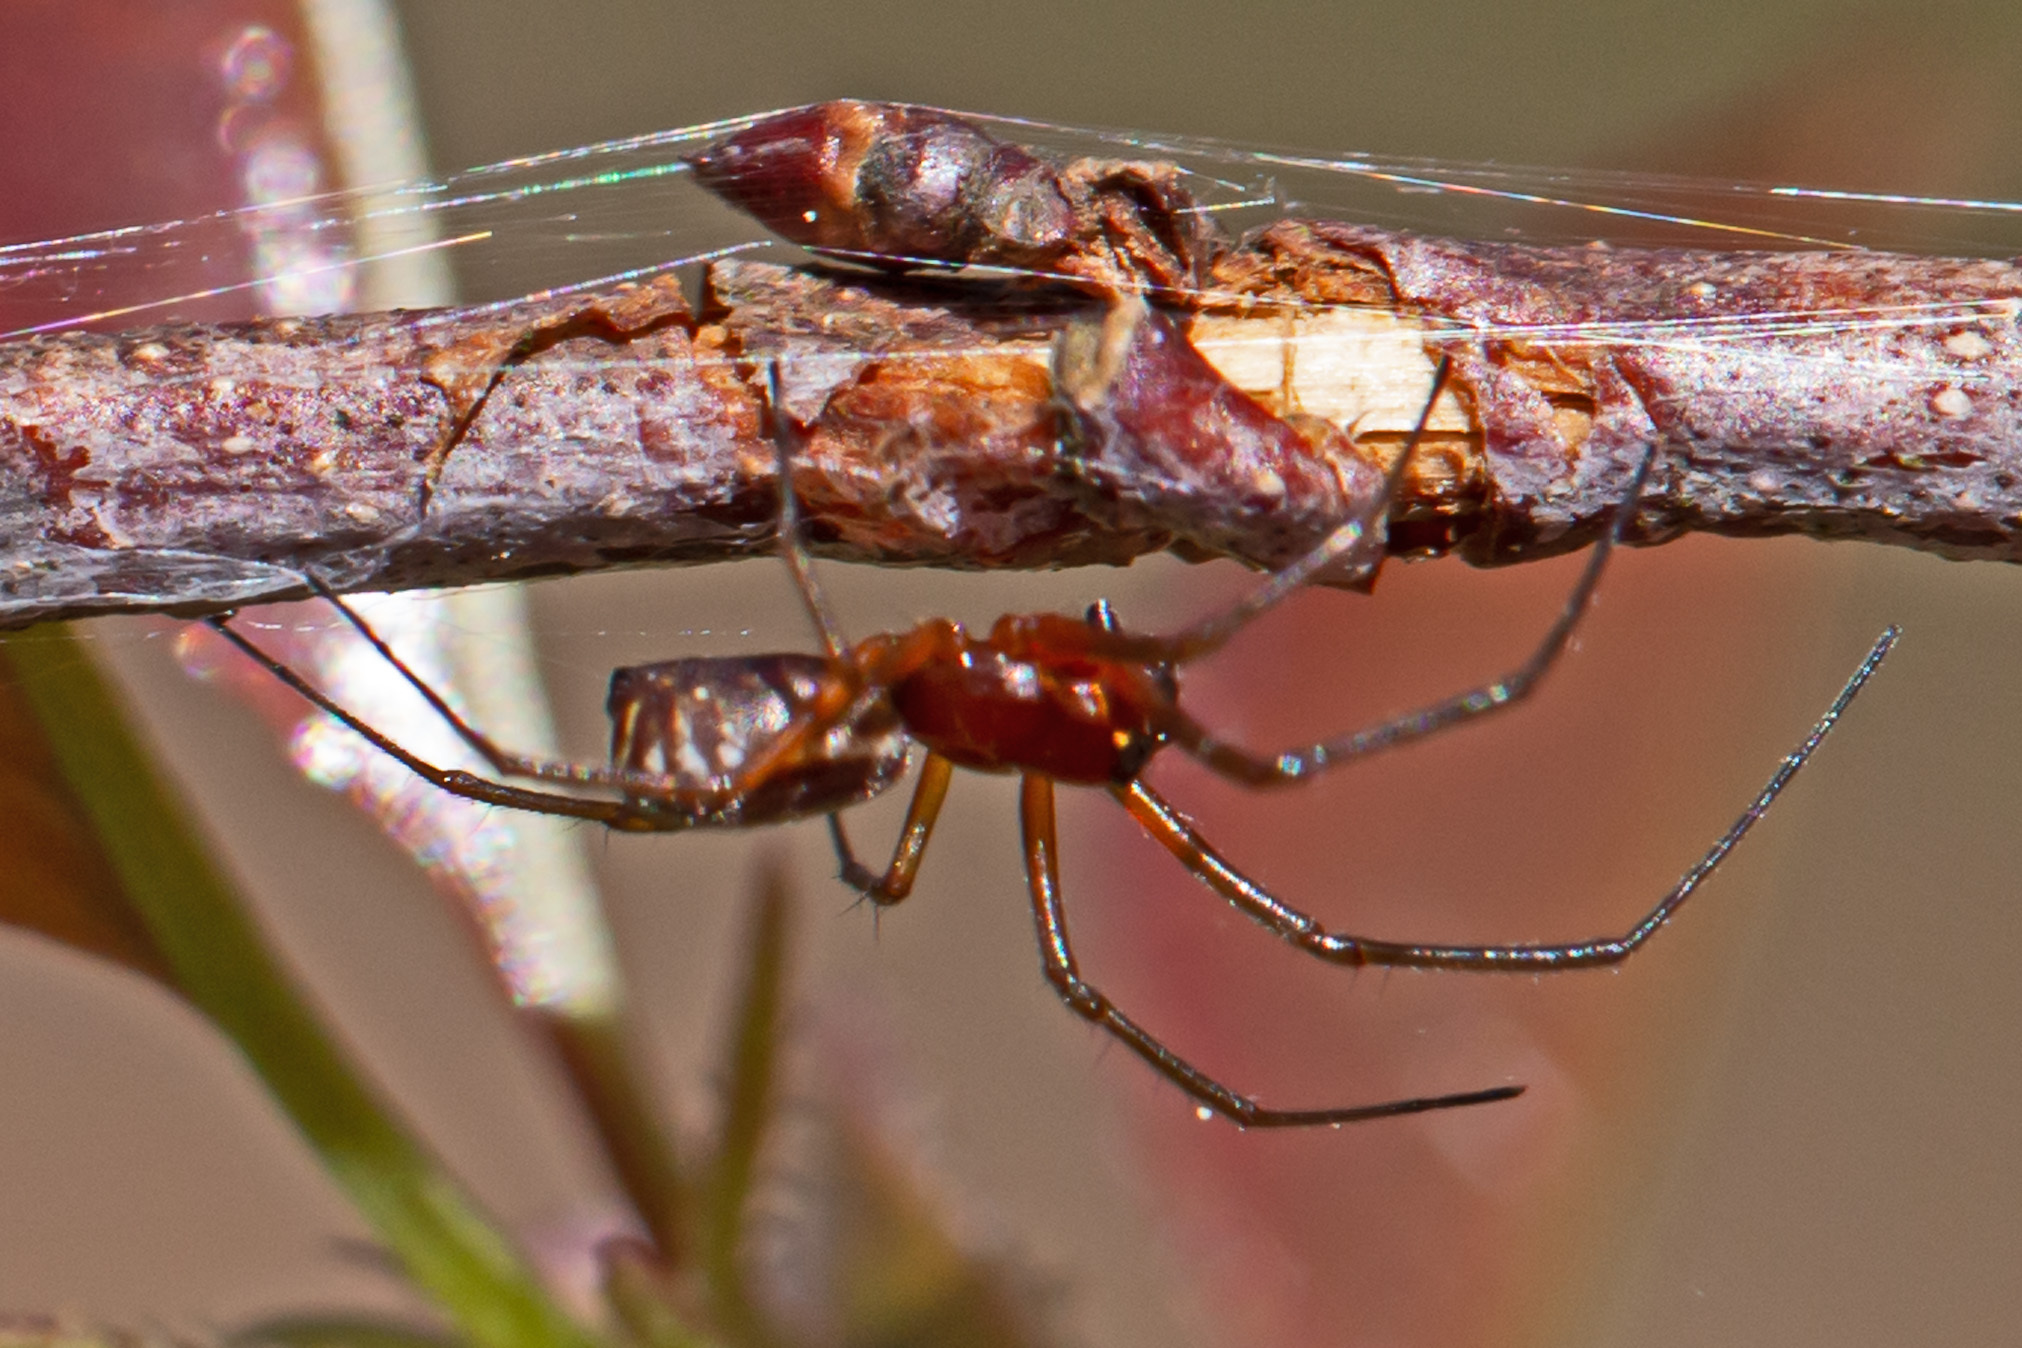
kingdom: Animalia
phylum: Arthropoda
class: Arachnida
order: Araneae
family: Linyphiidae
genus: Frontinella
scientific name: Frontinella pyramitela
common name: Bowl-and-doily spider
